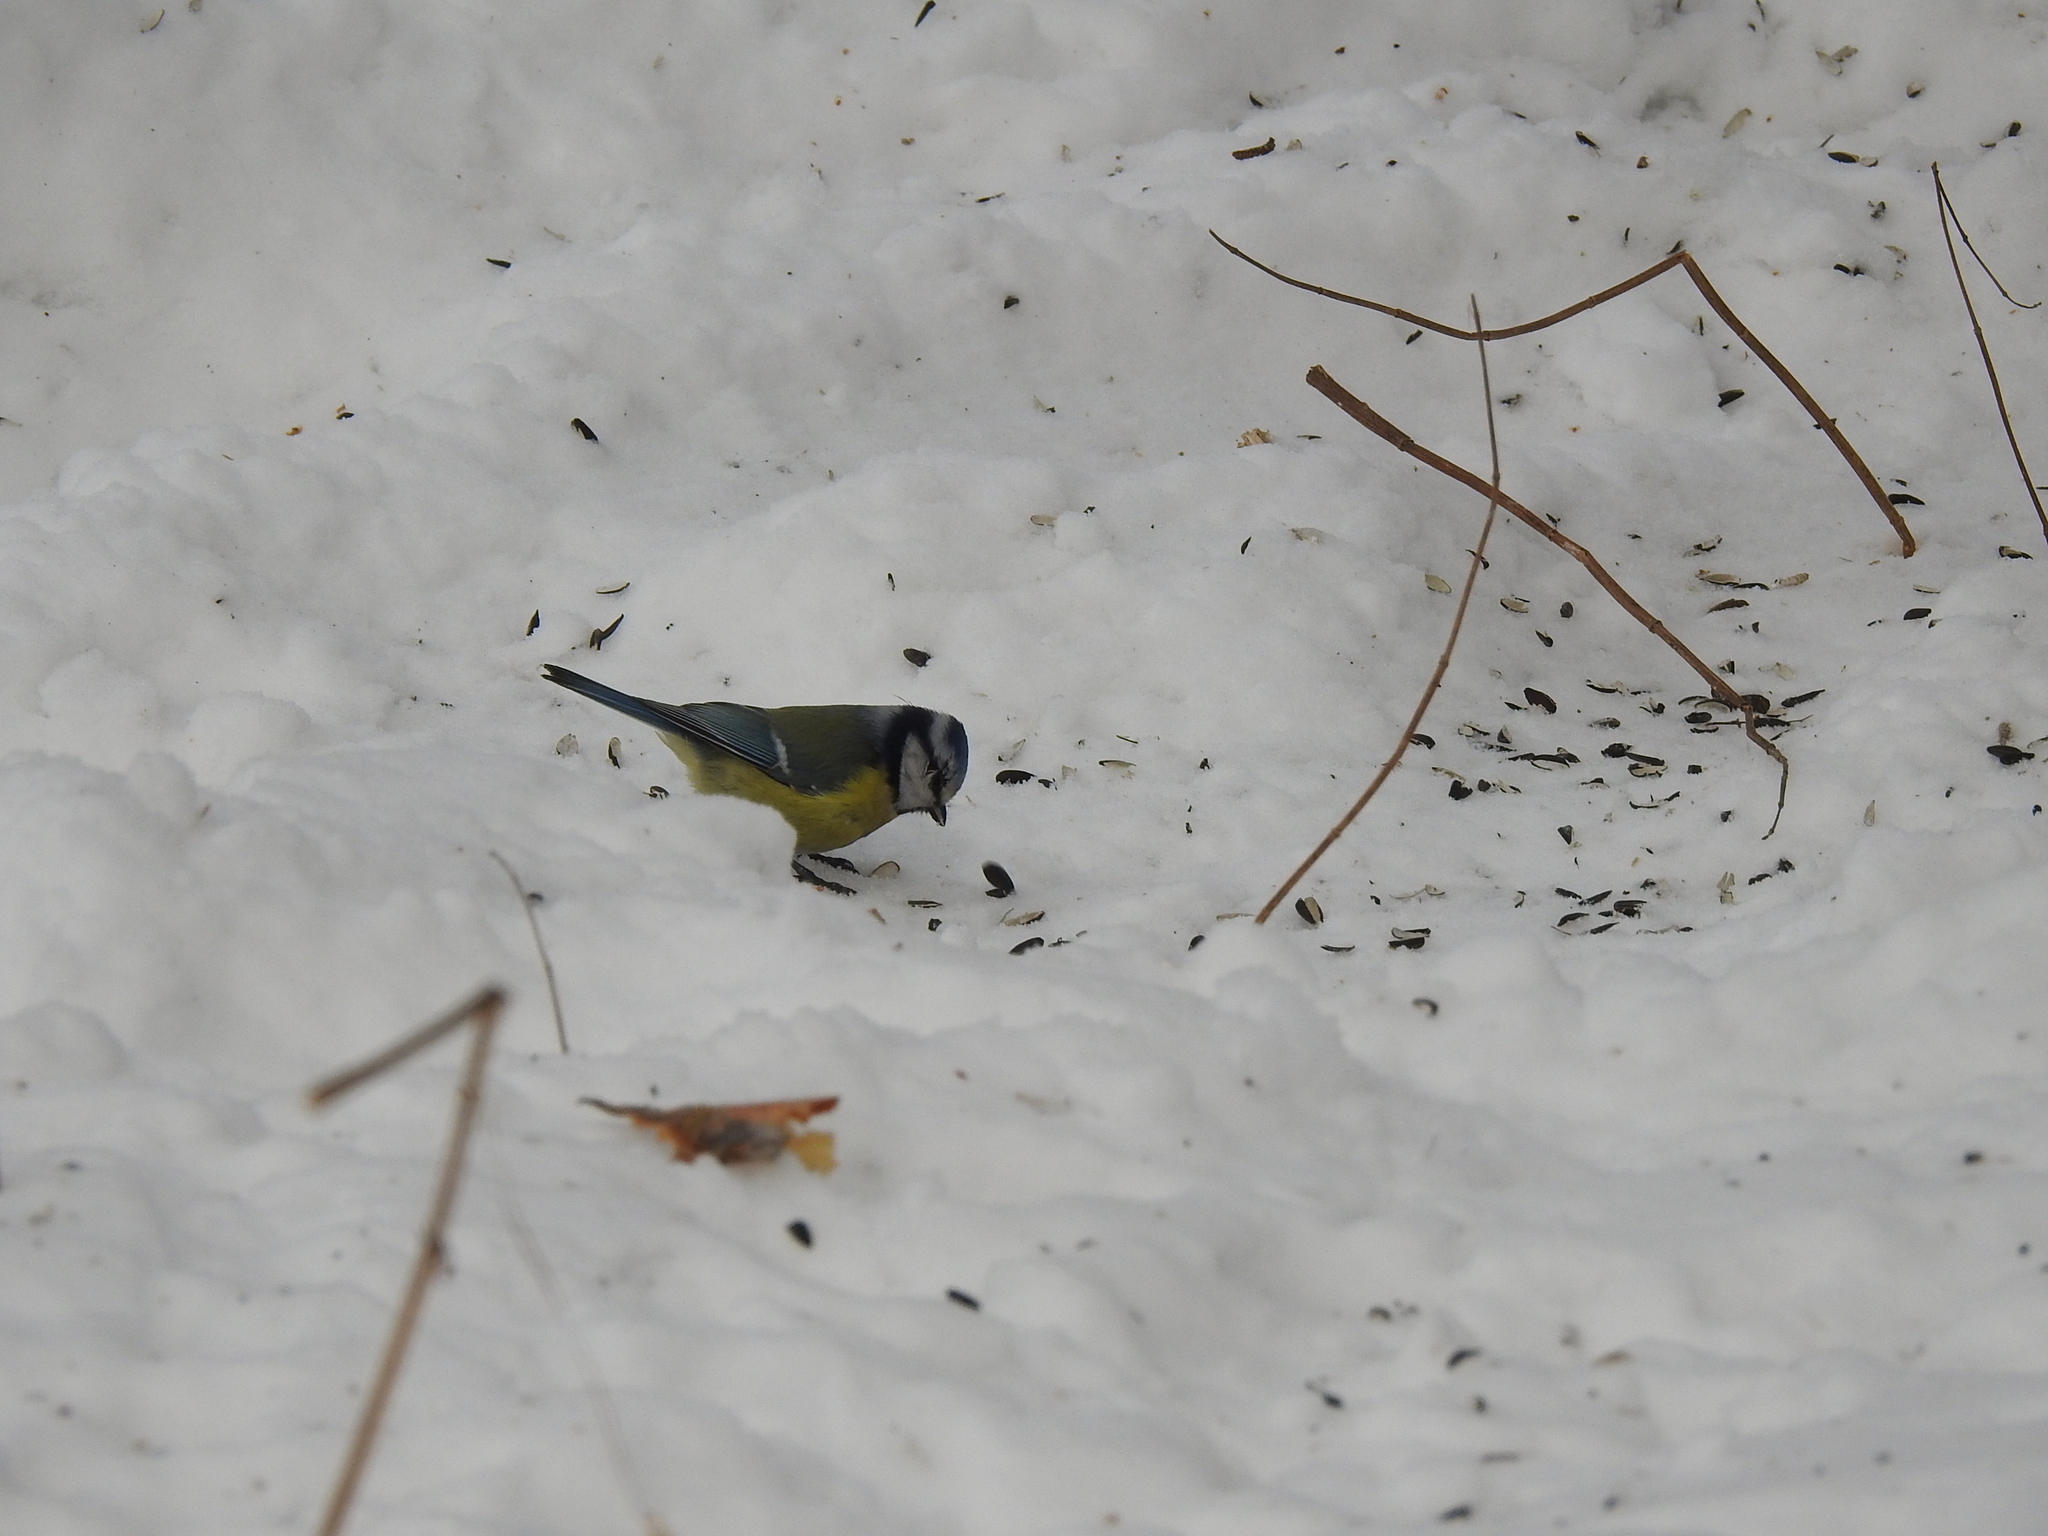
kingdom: Animalia
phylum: Chordata
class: Aves
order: Passeriformes
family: Paridae
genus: Cyanistes
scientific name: Cyanistes caeruleus
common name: Eurasian blue tit
